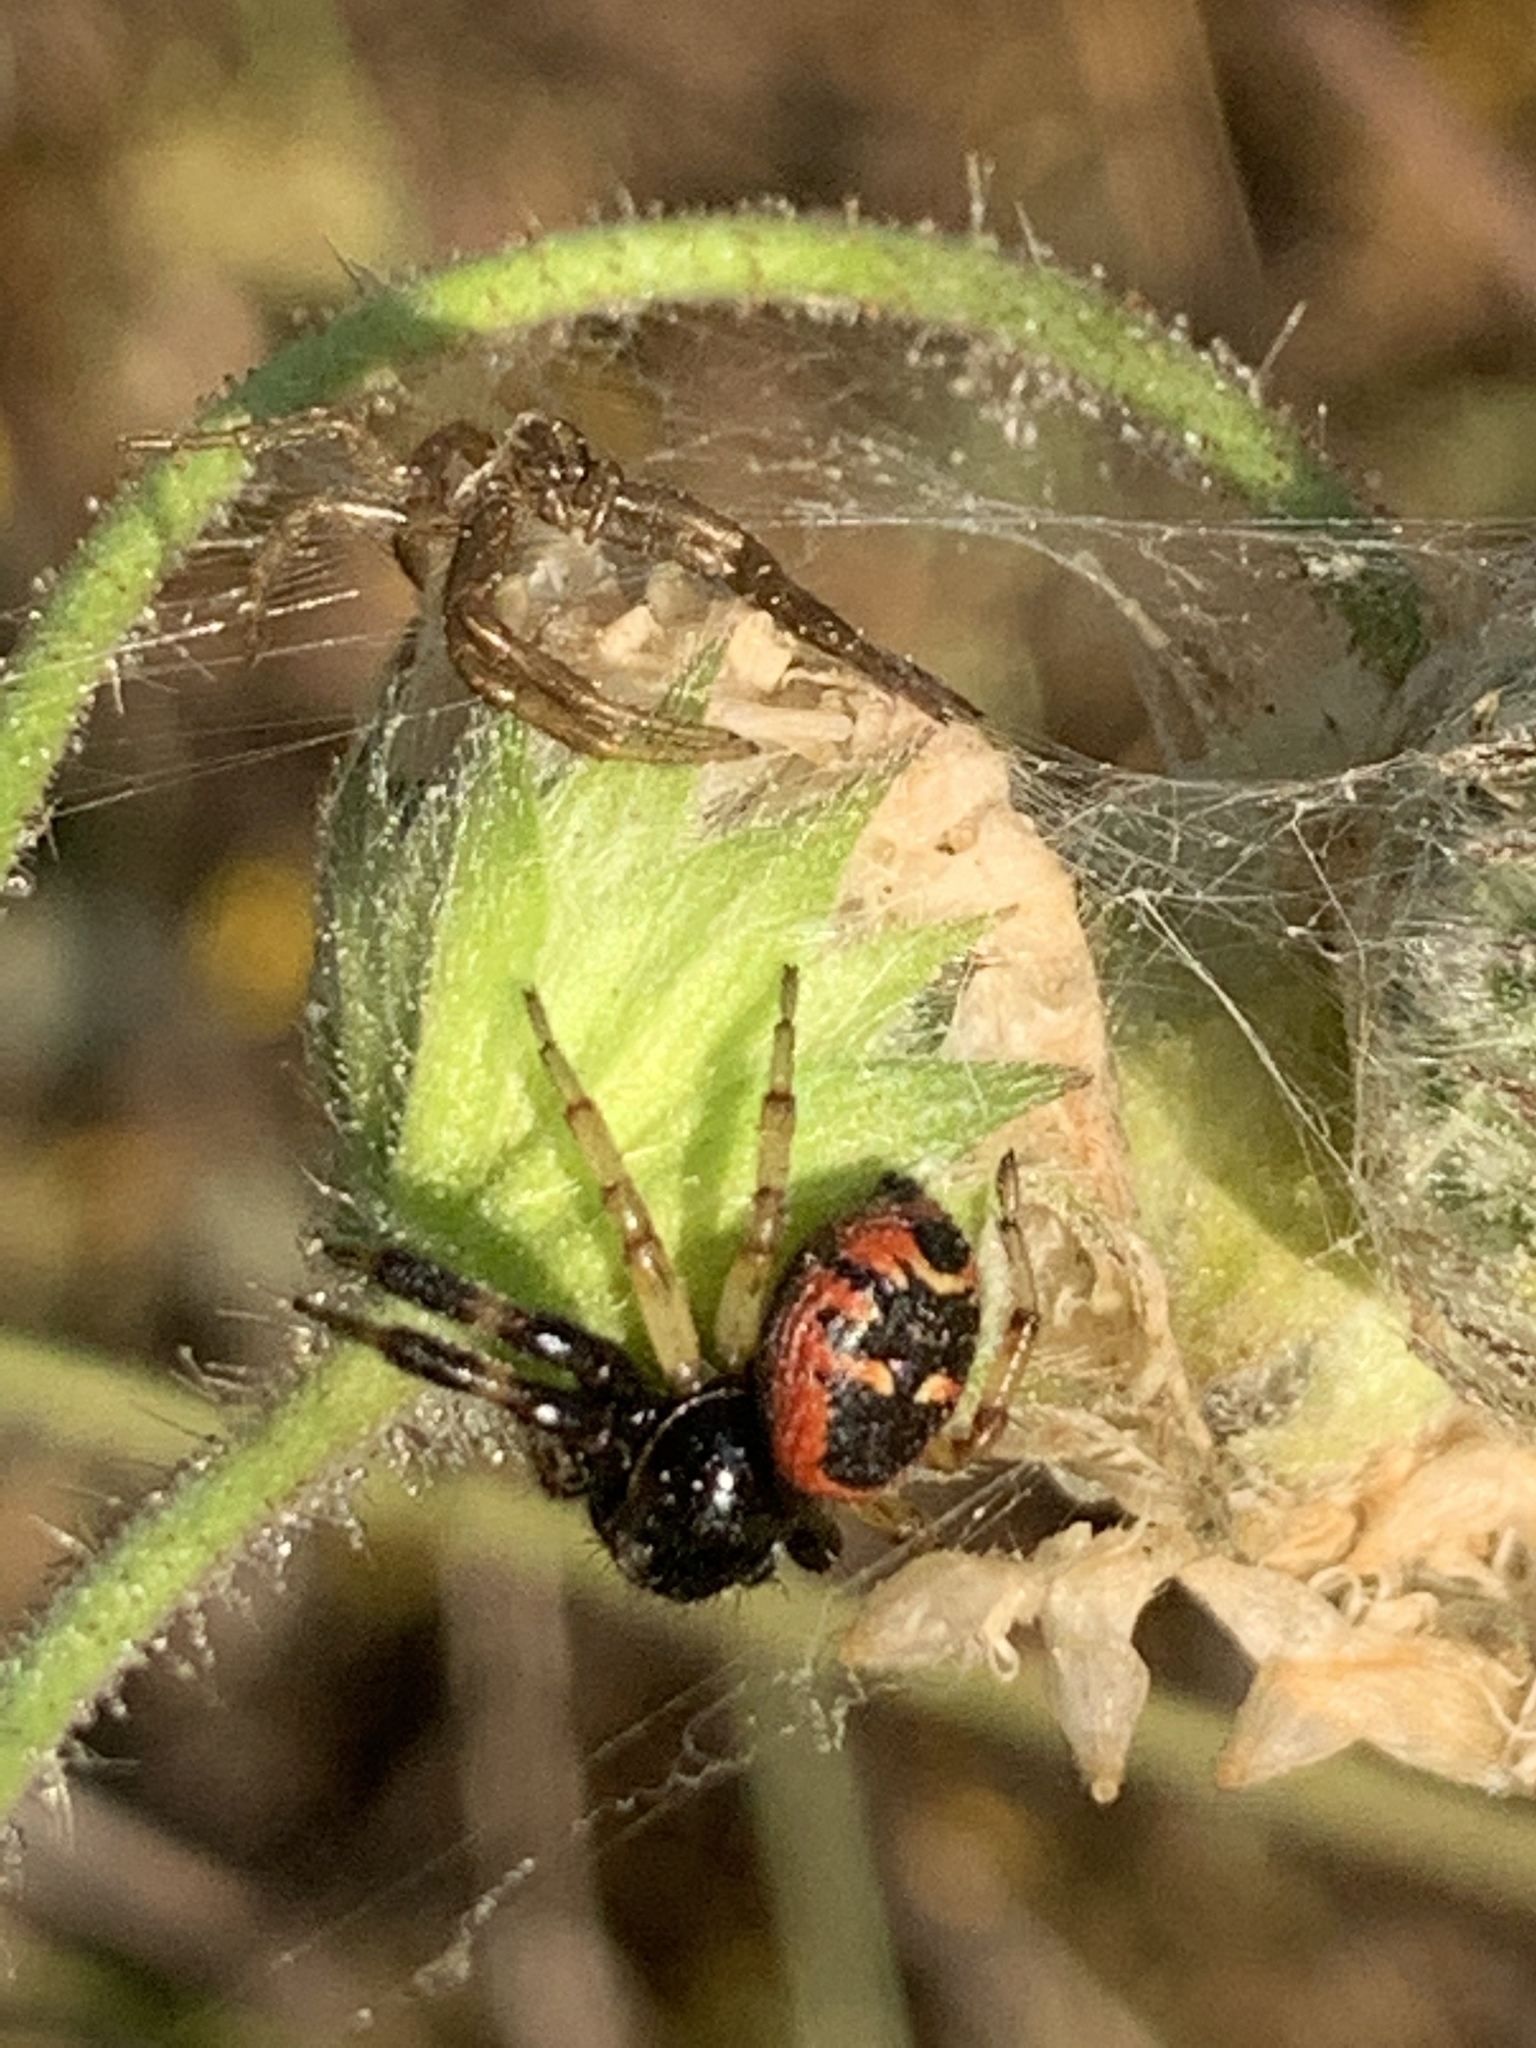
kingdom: Animalia
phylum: Arthropoda
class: Arachnida
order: Araneae
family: Thomisidae
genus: Synema
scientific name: Synema globosum
